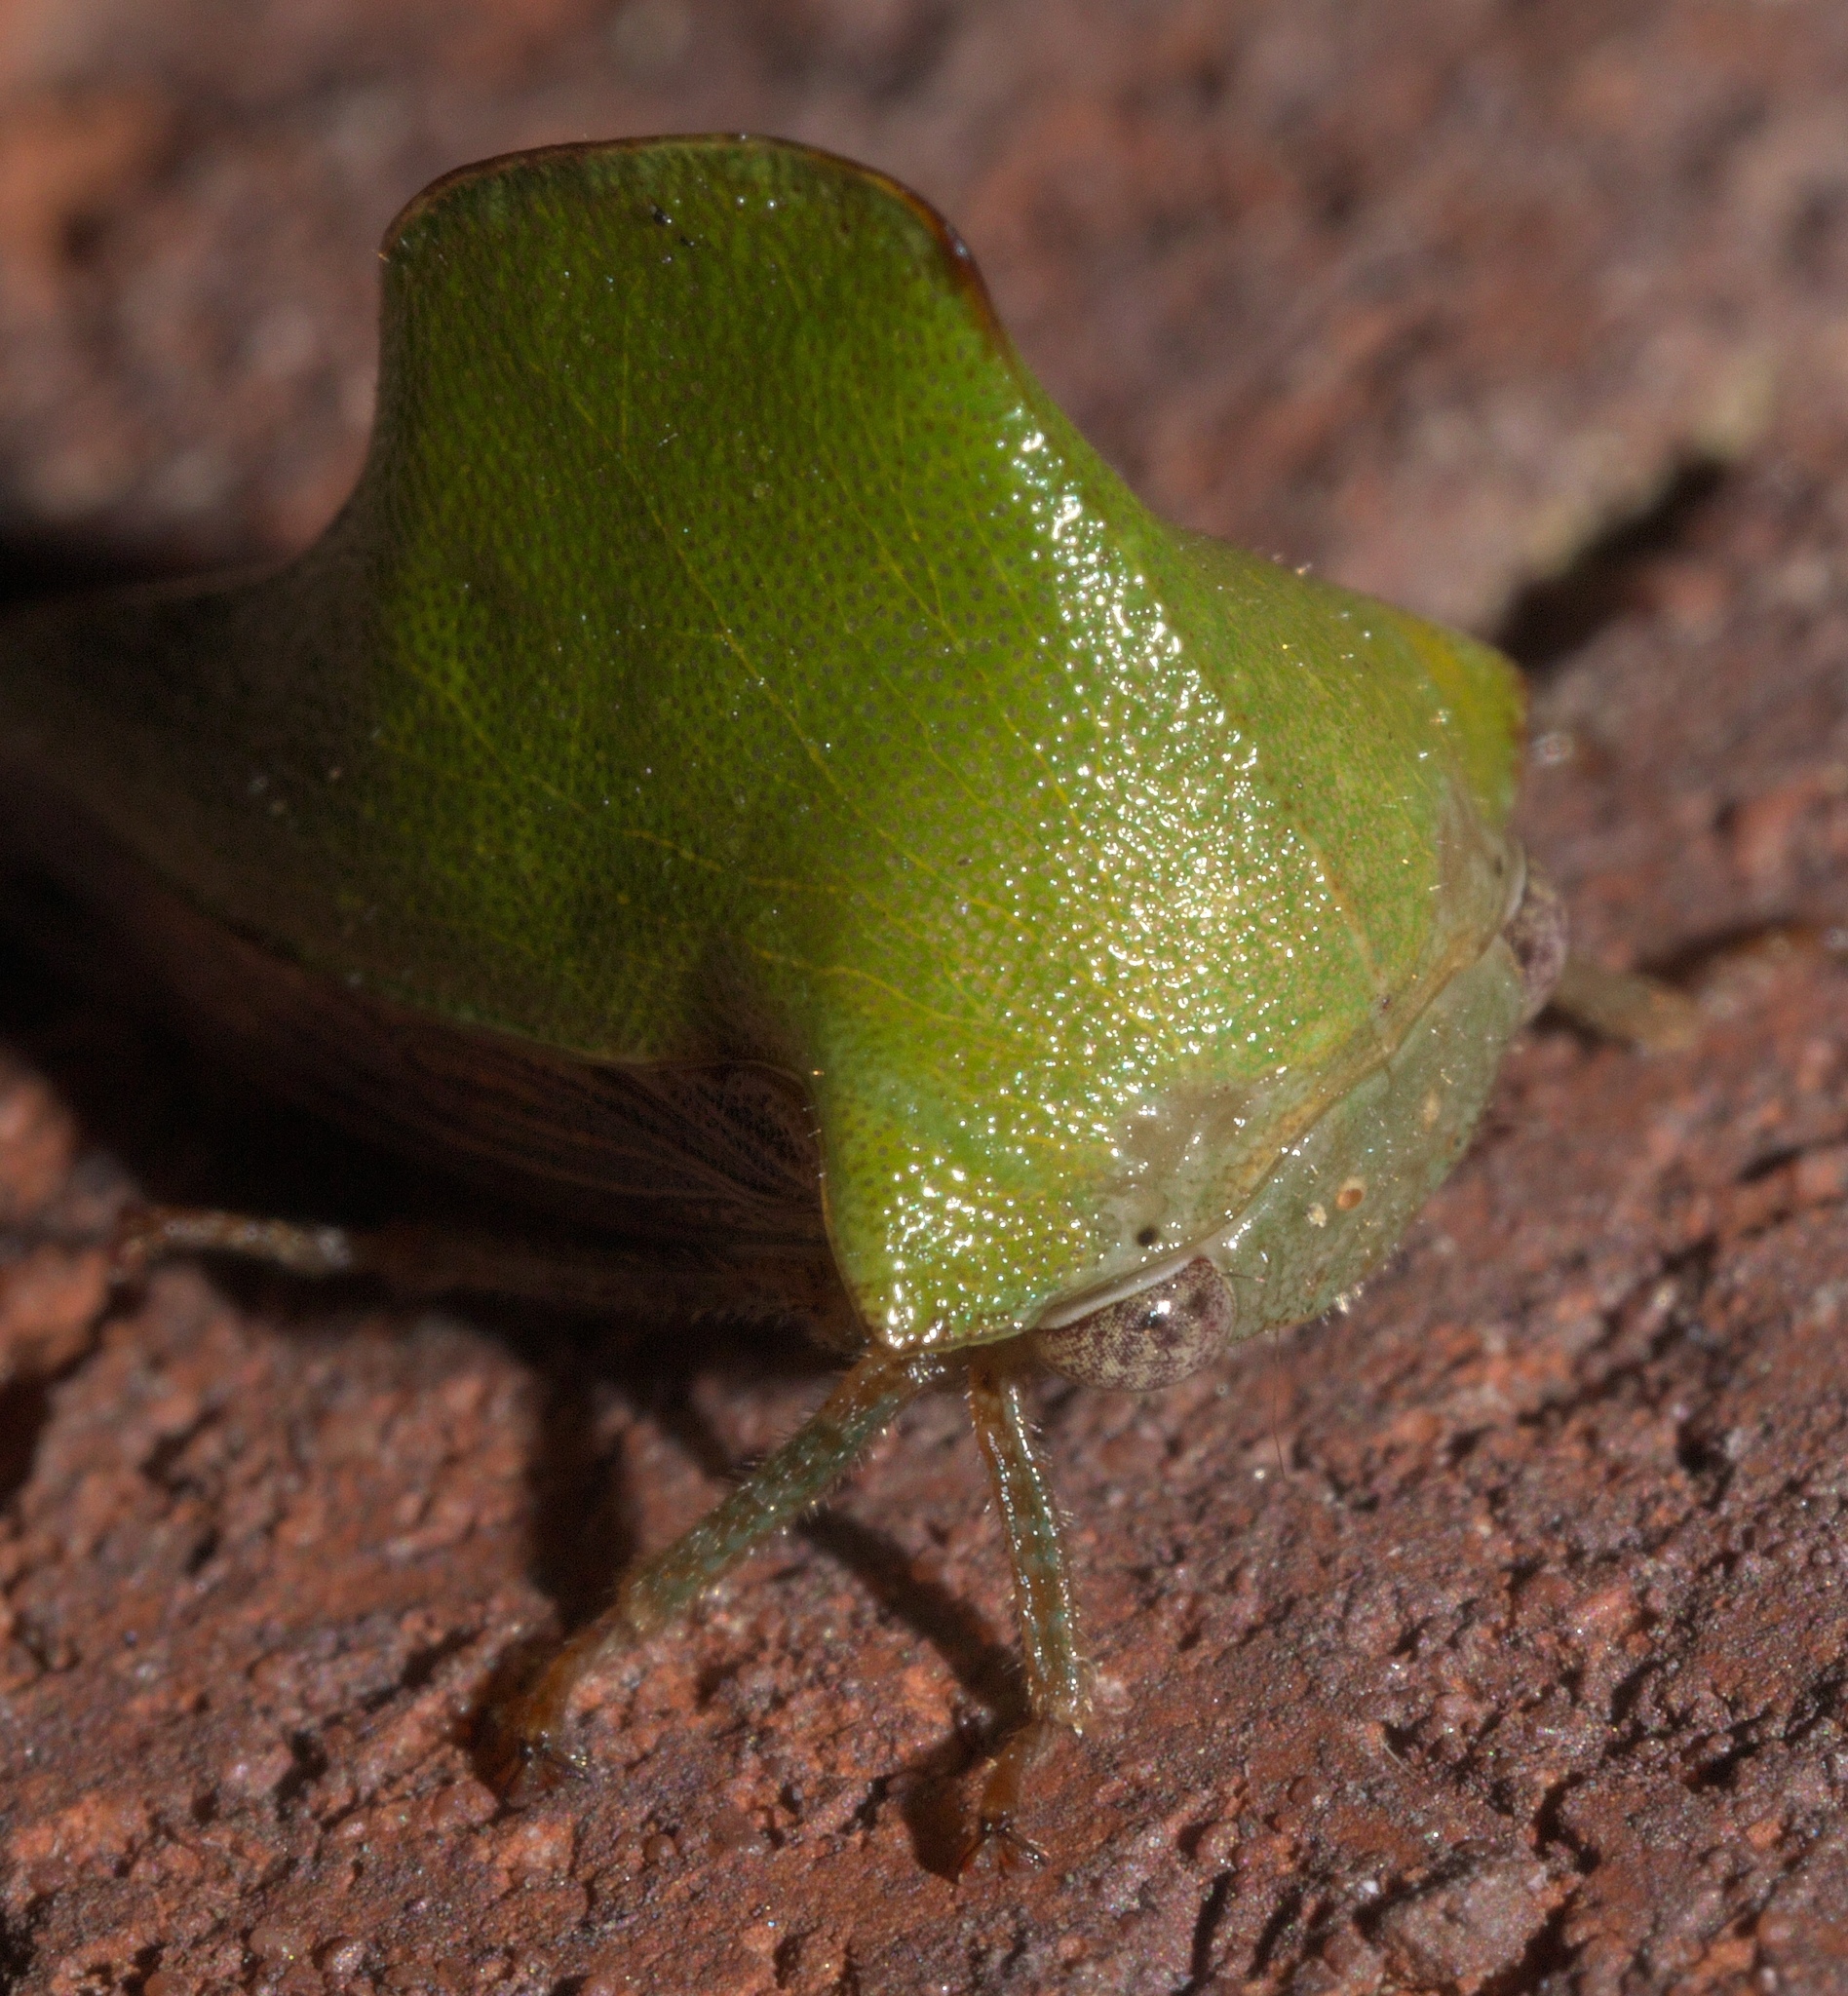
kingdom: Animalia
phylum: Arthropoda
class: Insecta
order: Hemiptera
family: Membracidae
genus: Helonica
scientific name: Helonica excelsa
